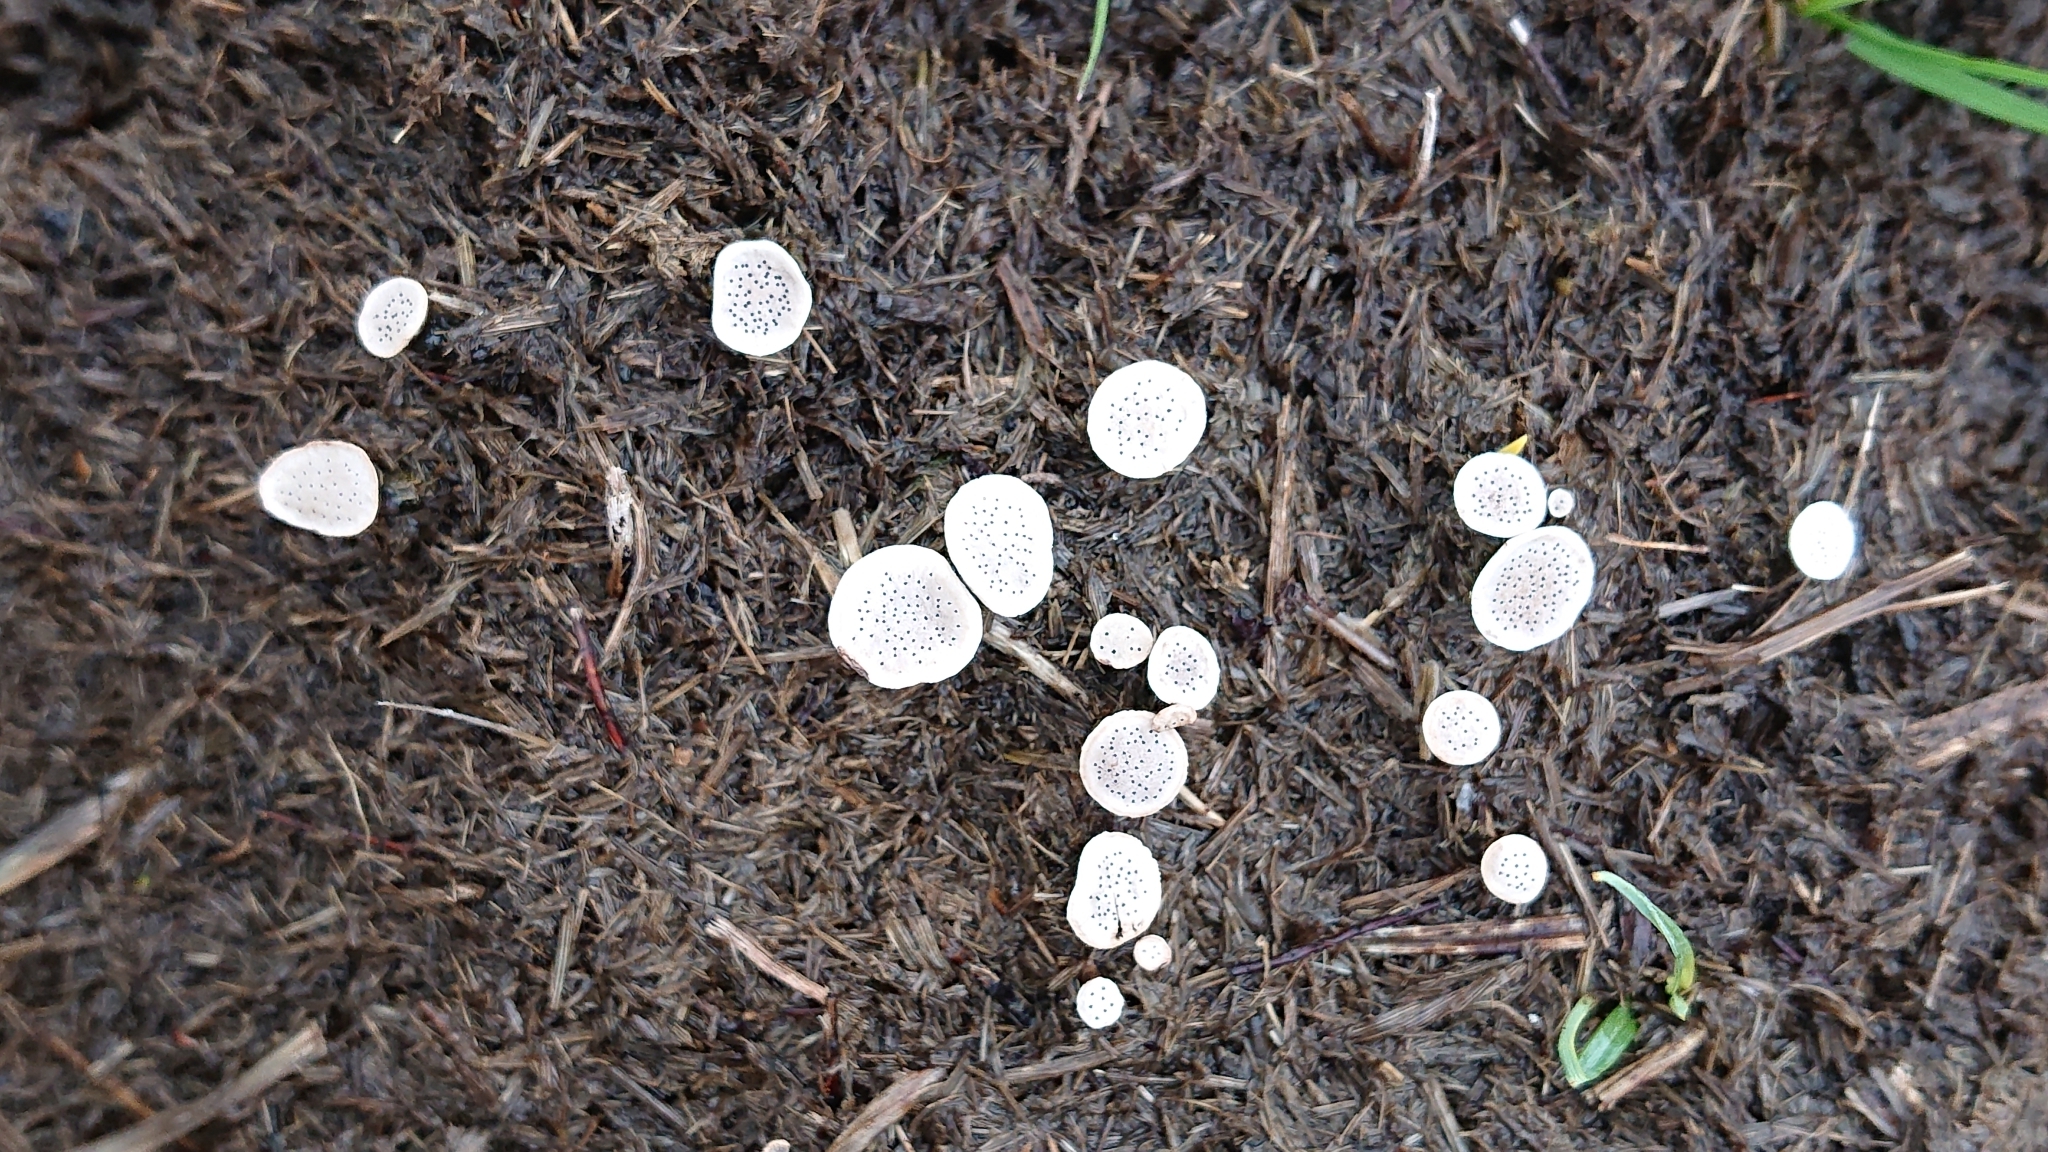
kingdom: Fungi
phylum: Ascomycota
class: Sordariomycetes
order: Xylariales
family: Xylariaceae
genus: Poronia
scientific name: Poronia punctata
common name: Nail fungus
